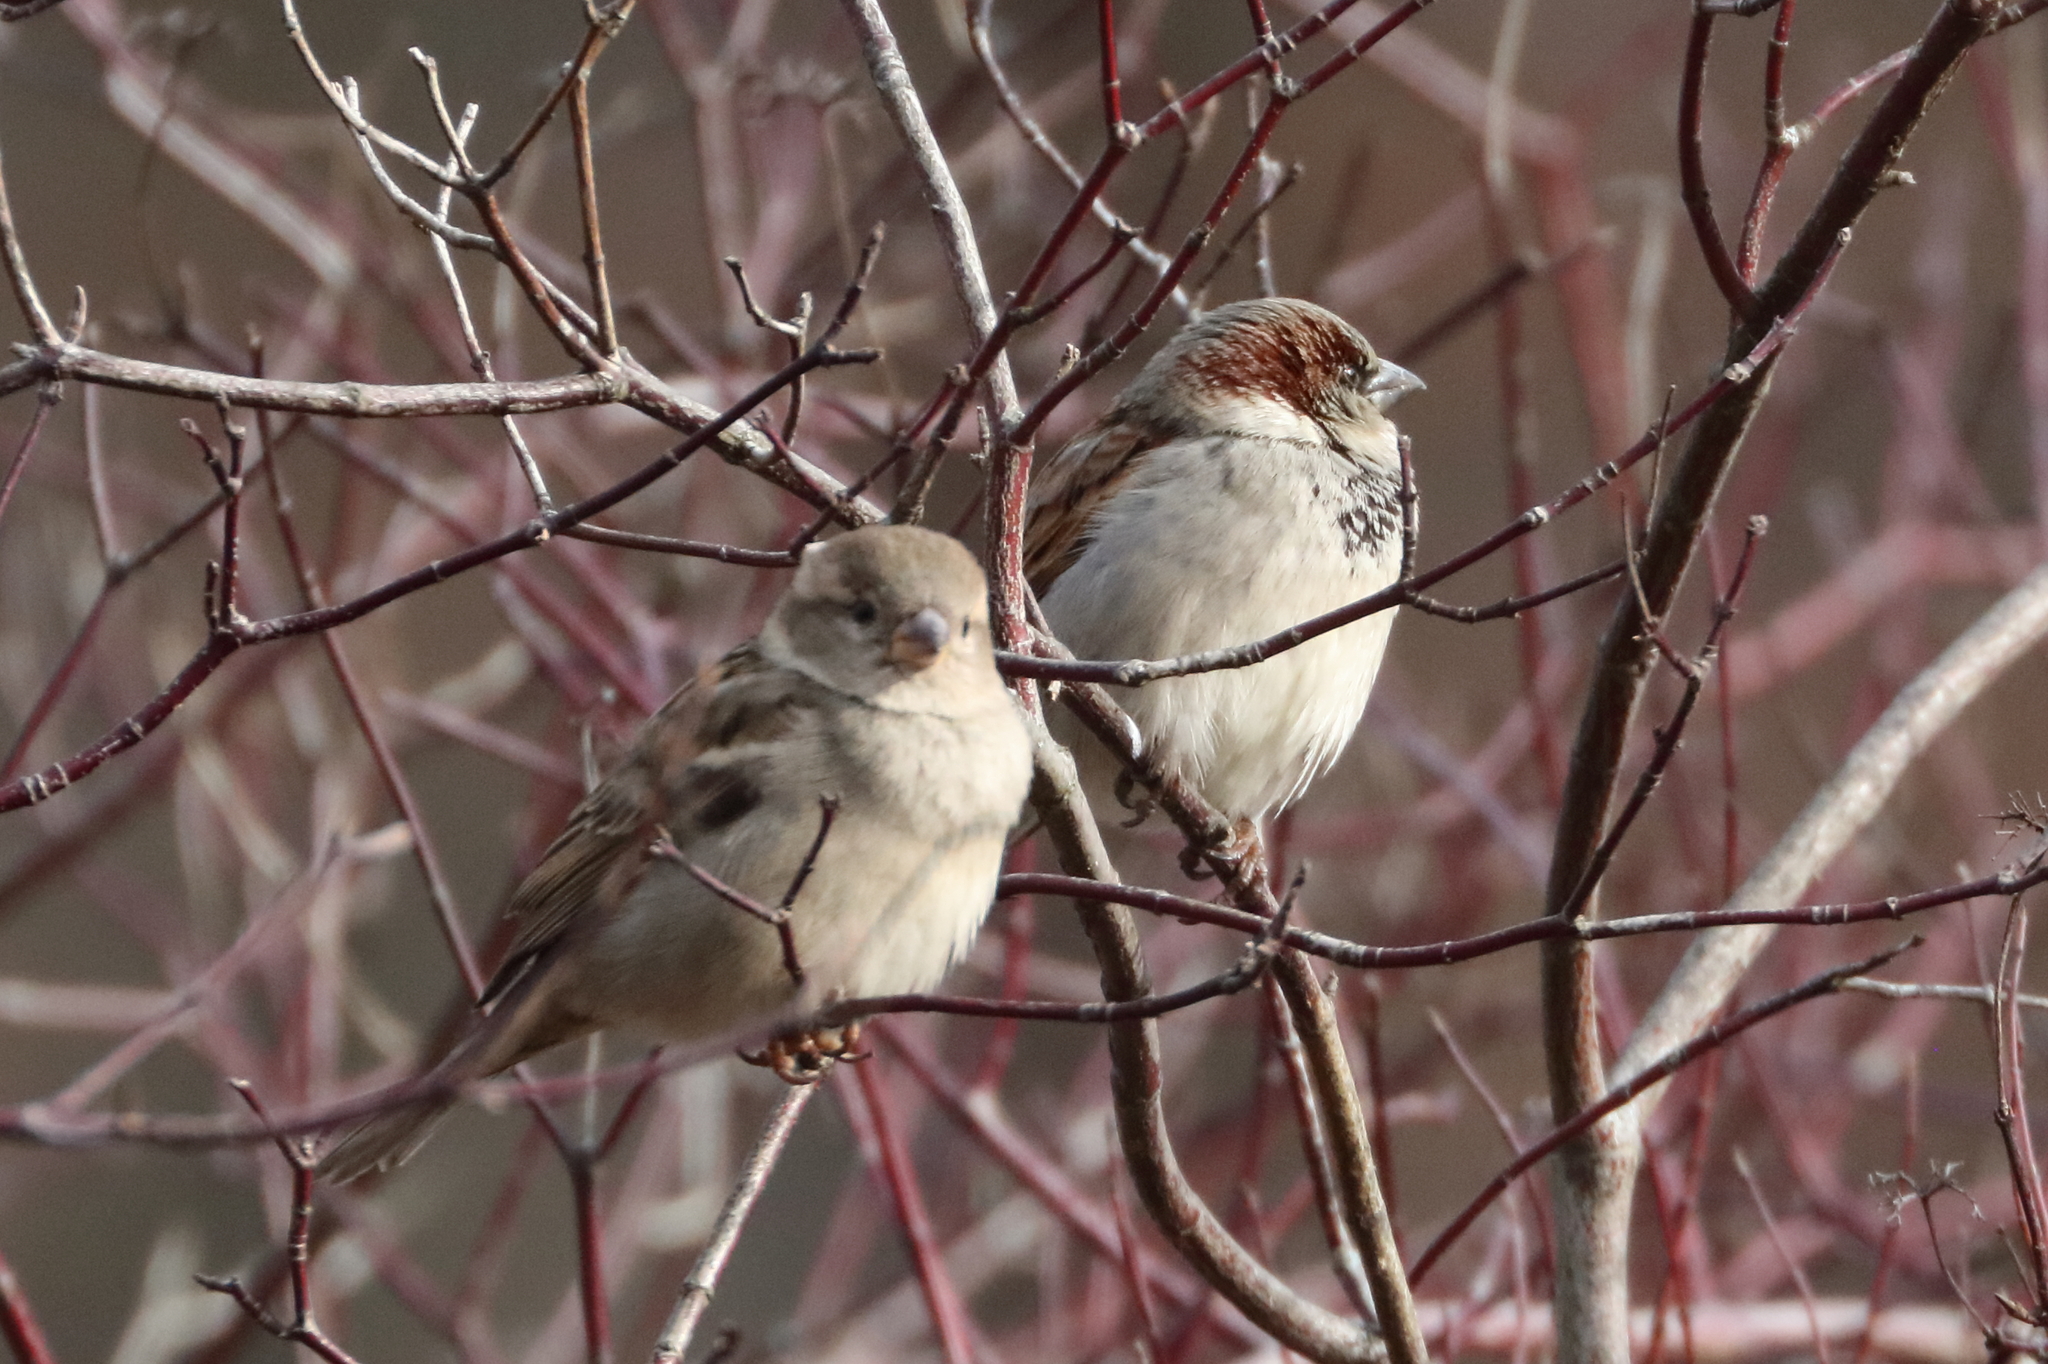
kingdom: Animalia
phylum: Chordata
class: Aves
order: Passeriformes
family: Passeridae
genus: Passer
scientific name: Passer domesticus
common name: House sparrow
